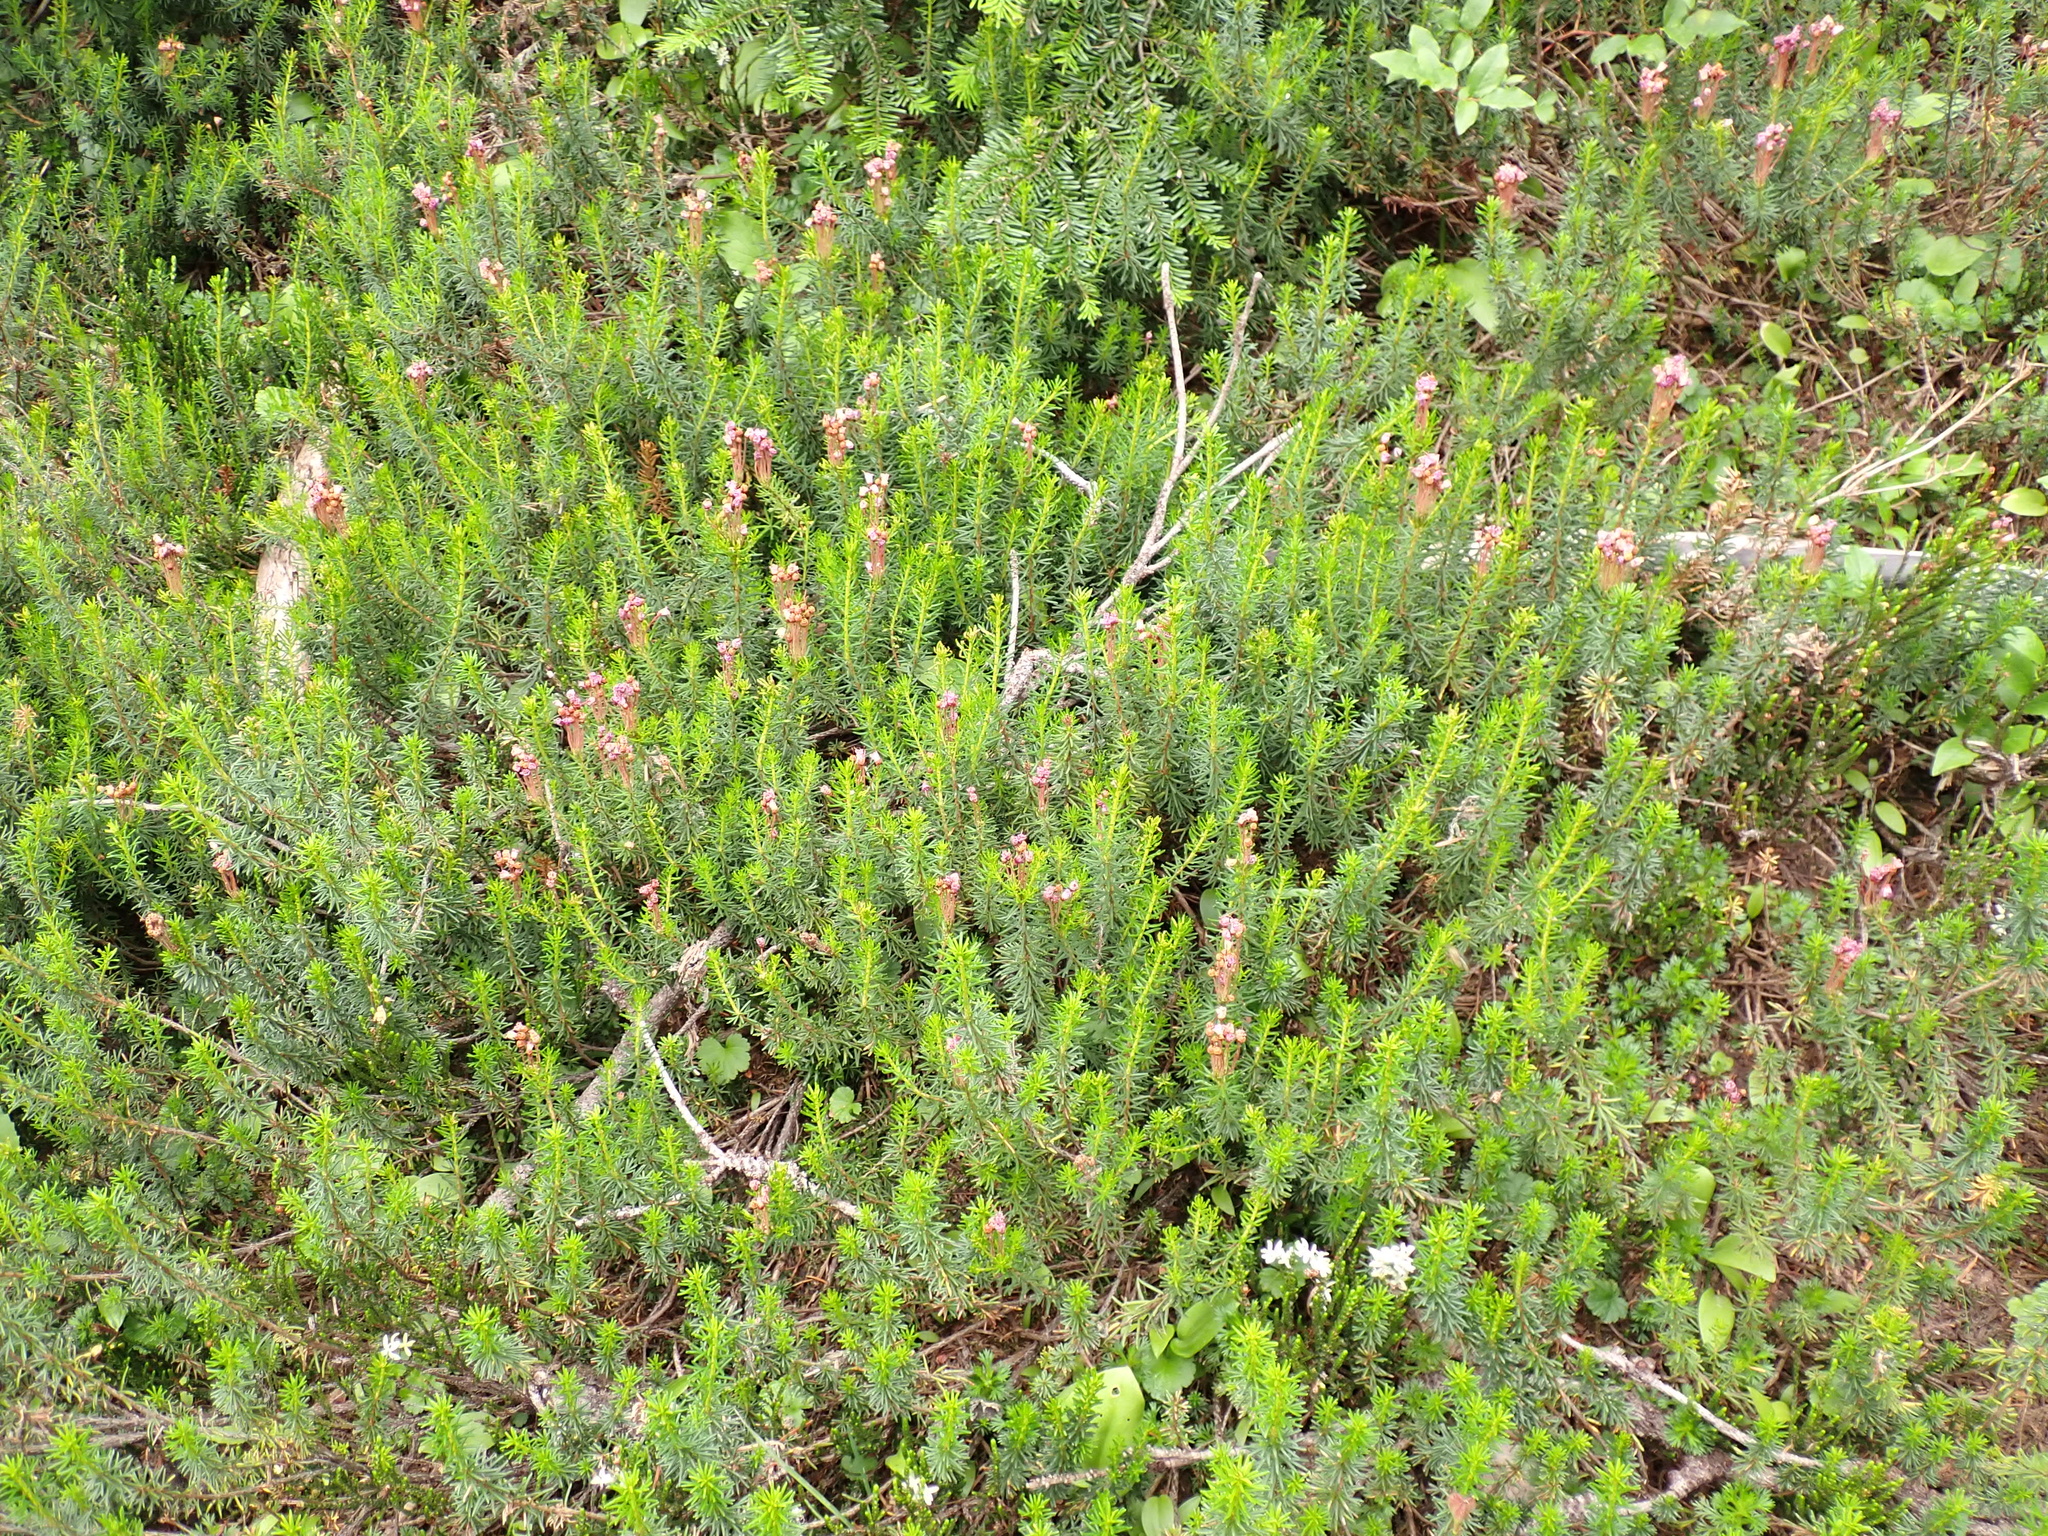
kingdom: Plantae
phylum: Tracheophyta
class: Magnoliopsida
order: Ericales
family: Ericaceae
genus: Phyllodoce
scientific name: Phyllodoce empetriformis
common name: Pink mountain heather
